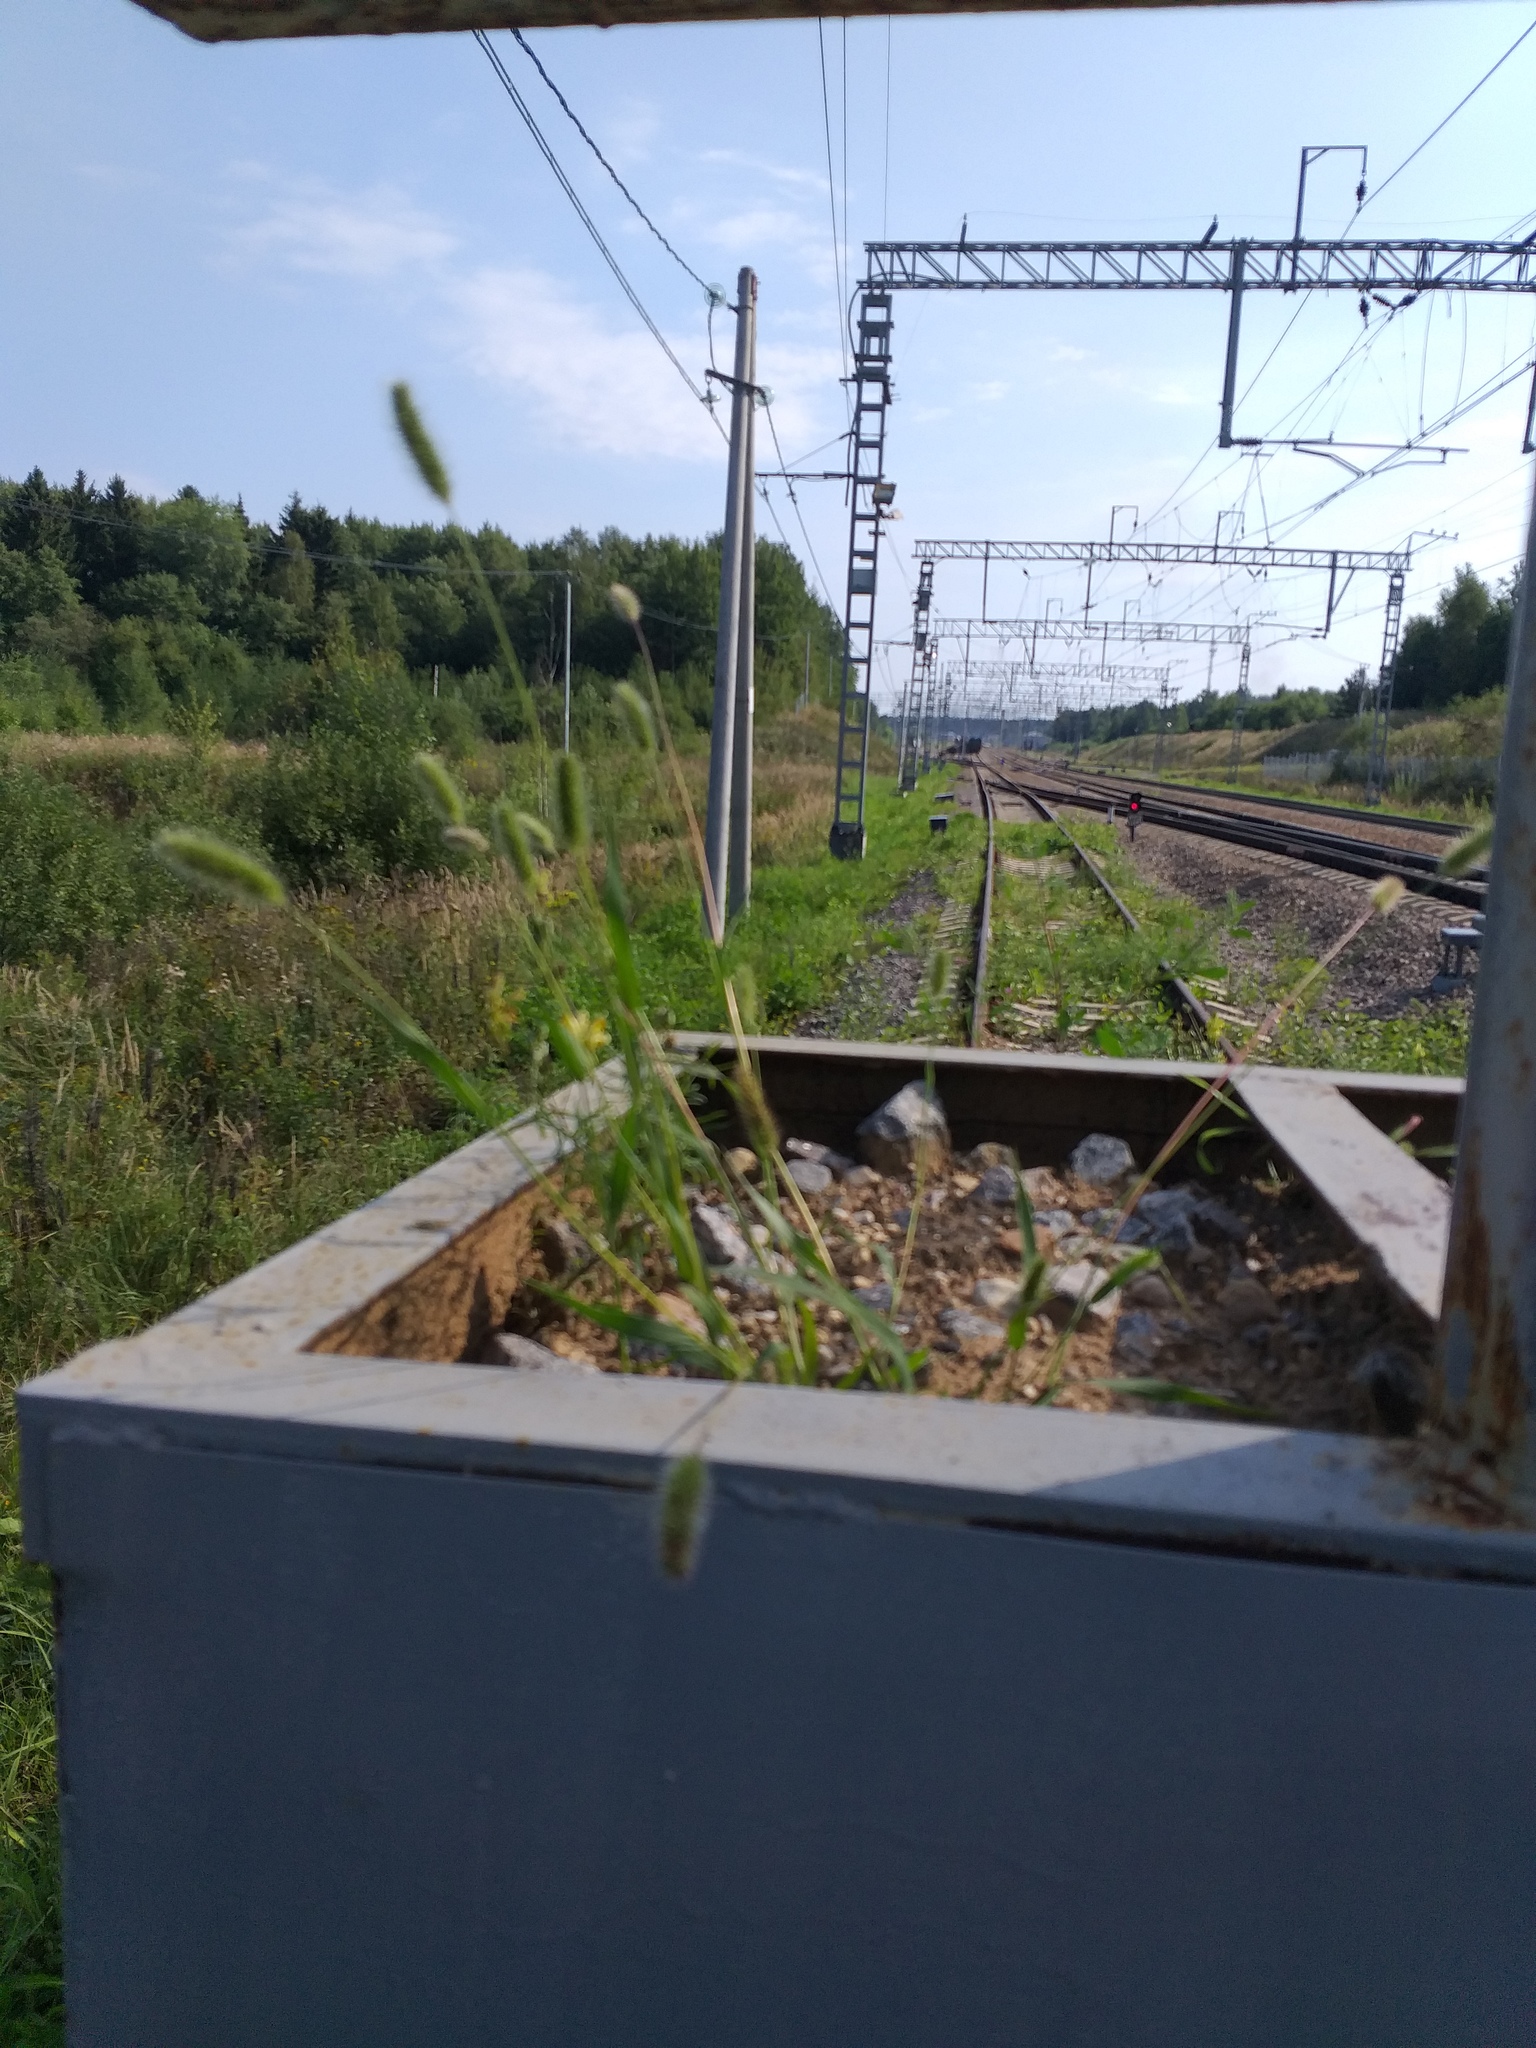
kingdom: Plantae
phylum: Tracheophyta
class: Liliopsida
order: Poales
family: Poaceae
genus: Setaria
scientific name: Setaria viridis
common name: Green bristlegrass
